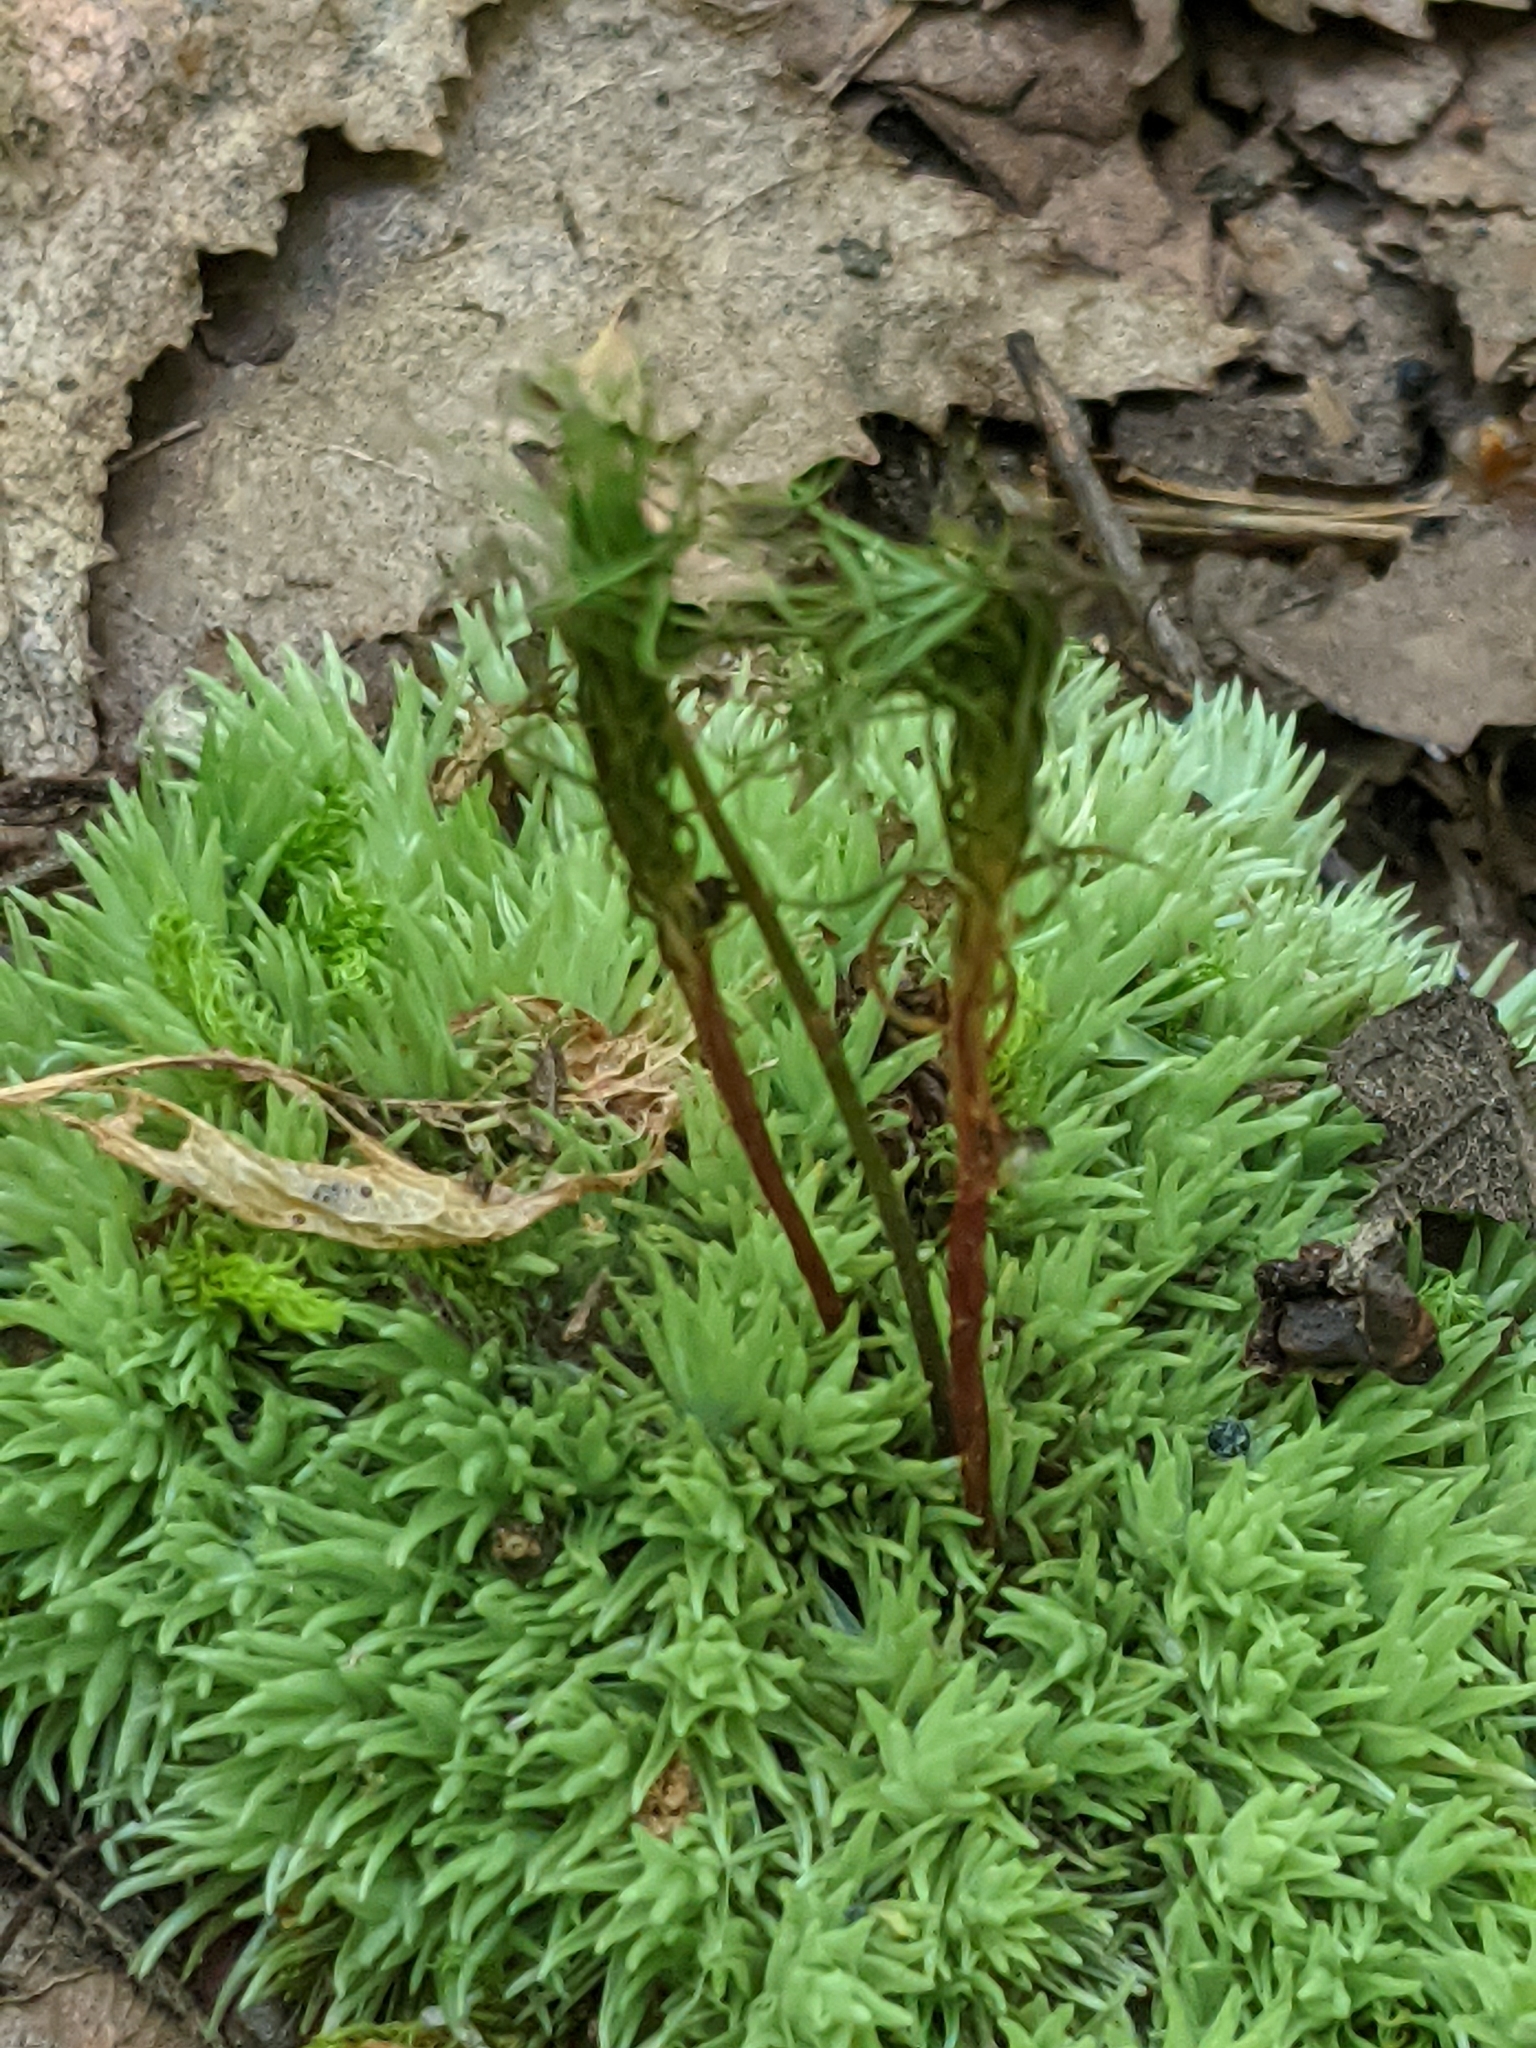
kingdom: Plantae
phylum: Bryophyta
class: Bryopsida
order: Dicranales
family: Leucobryaceae
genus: Leucobryum
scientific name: Leucobryum glaucum
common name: Large white-moss
